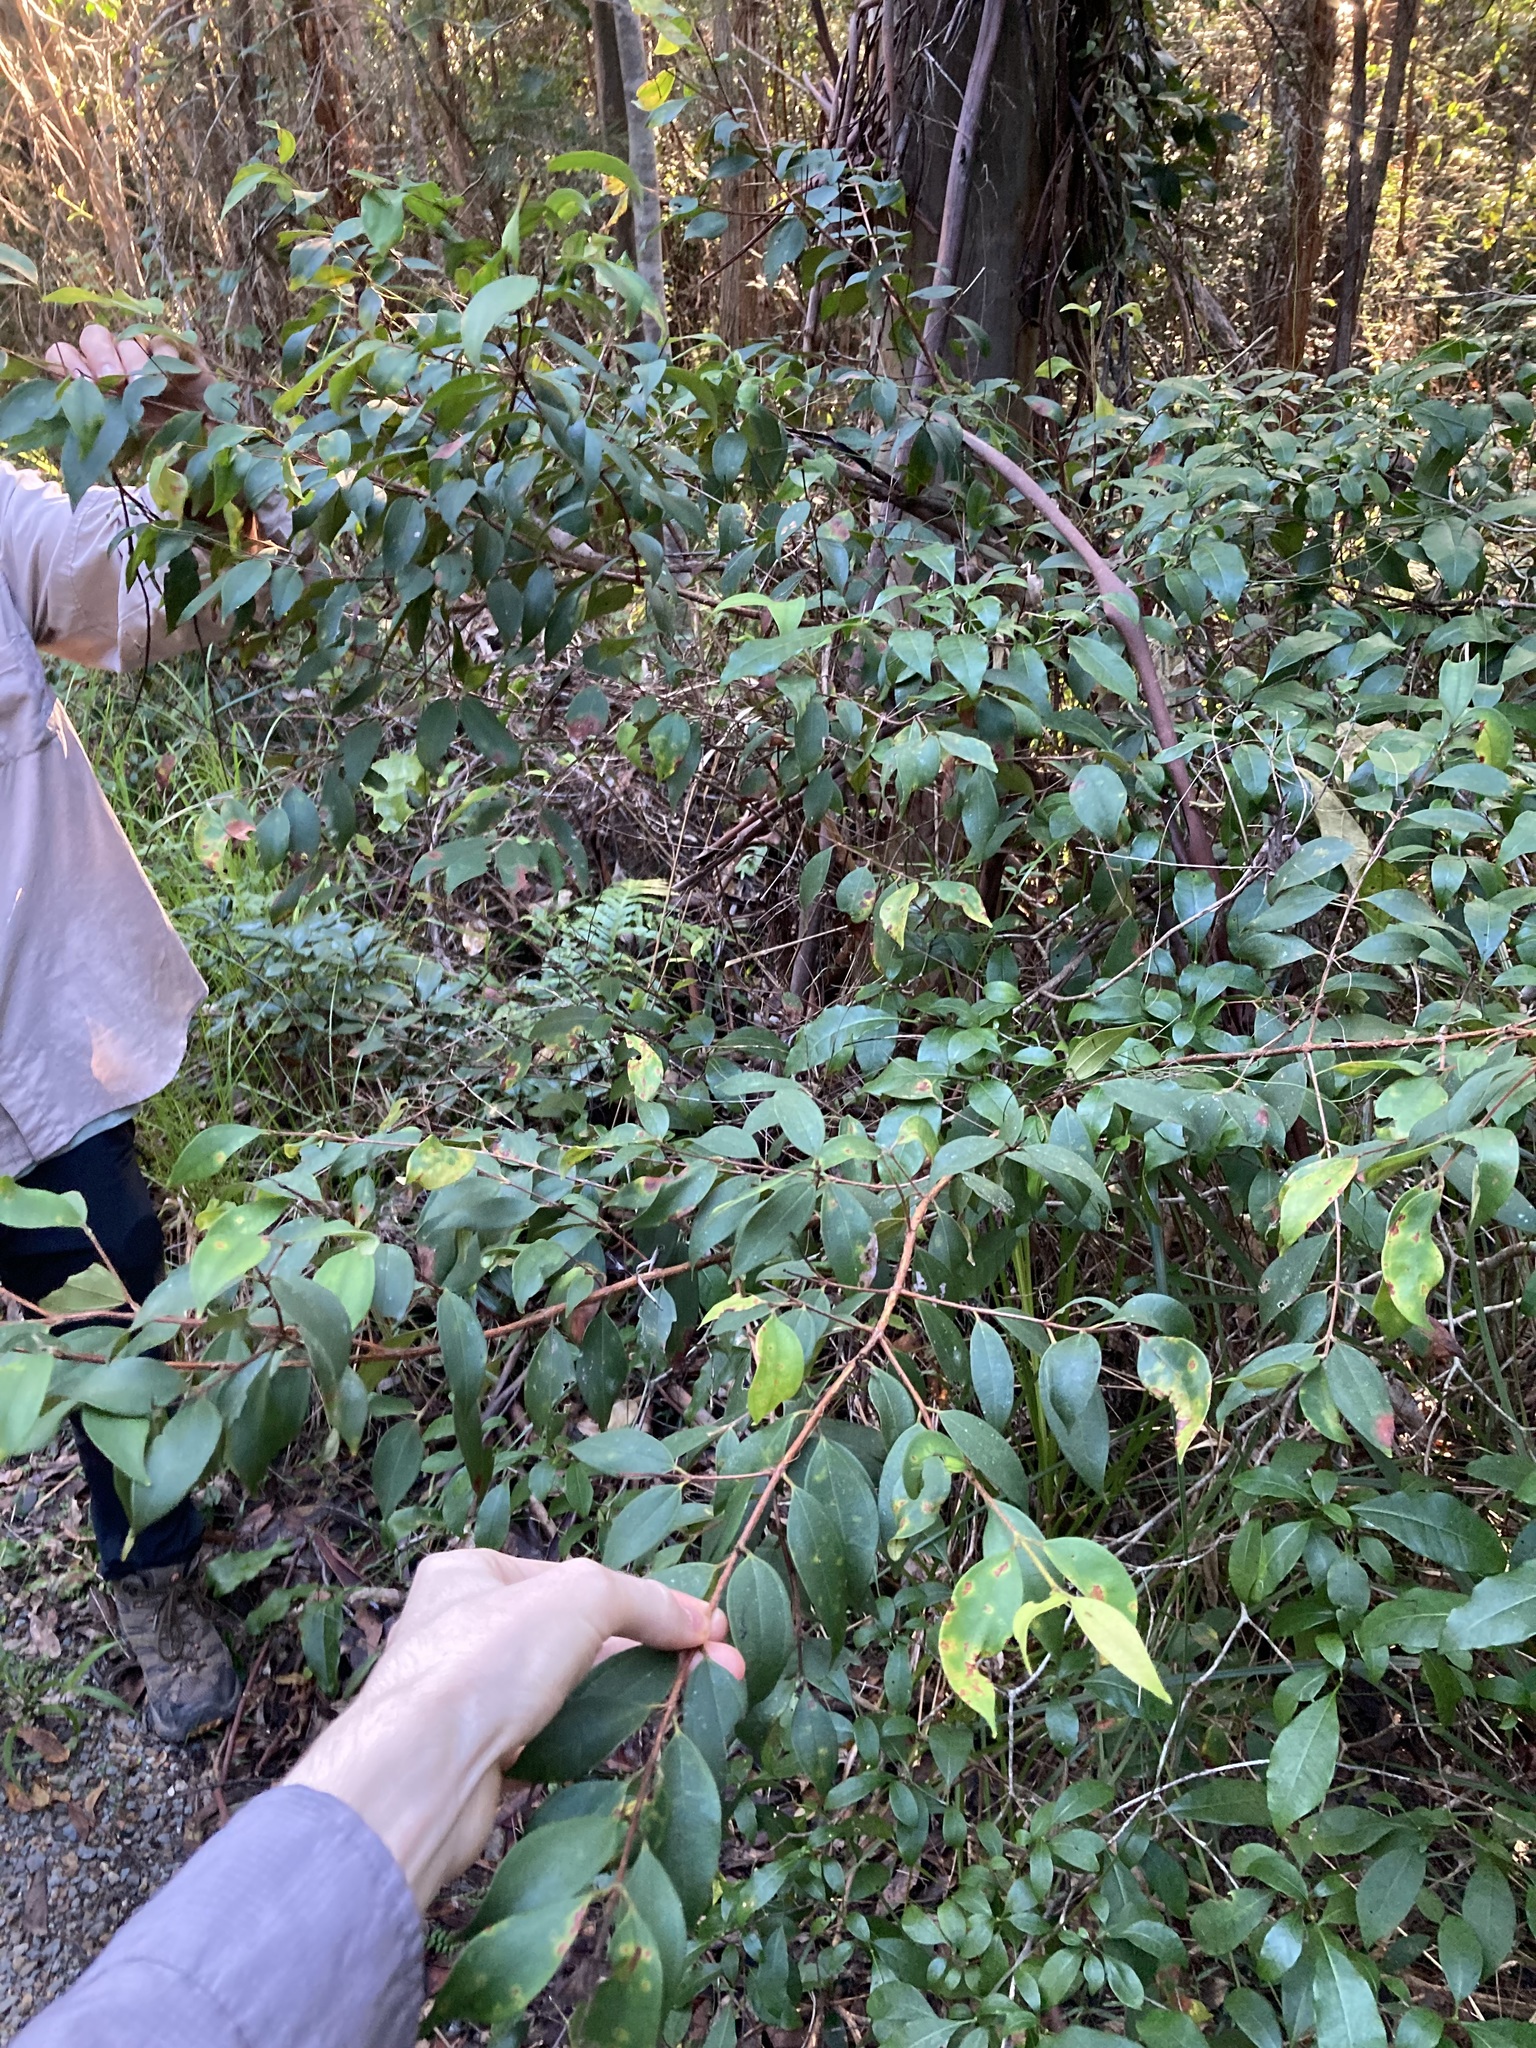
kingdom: Plantae
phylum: Tracheophyta
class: Magnoliopsida
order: Myrtales
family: Myrtaceae
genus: Rhodamnia
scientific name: Rhodamnia rubescens
